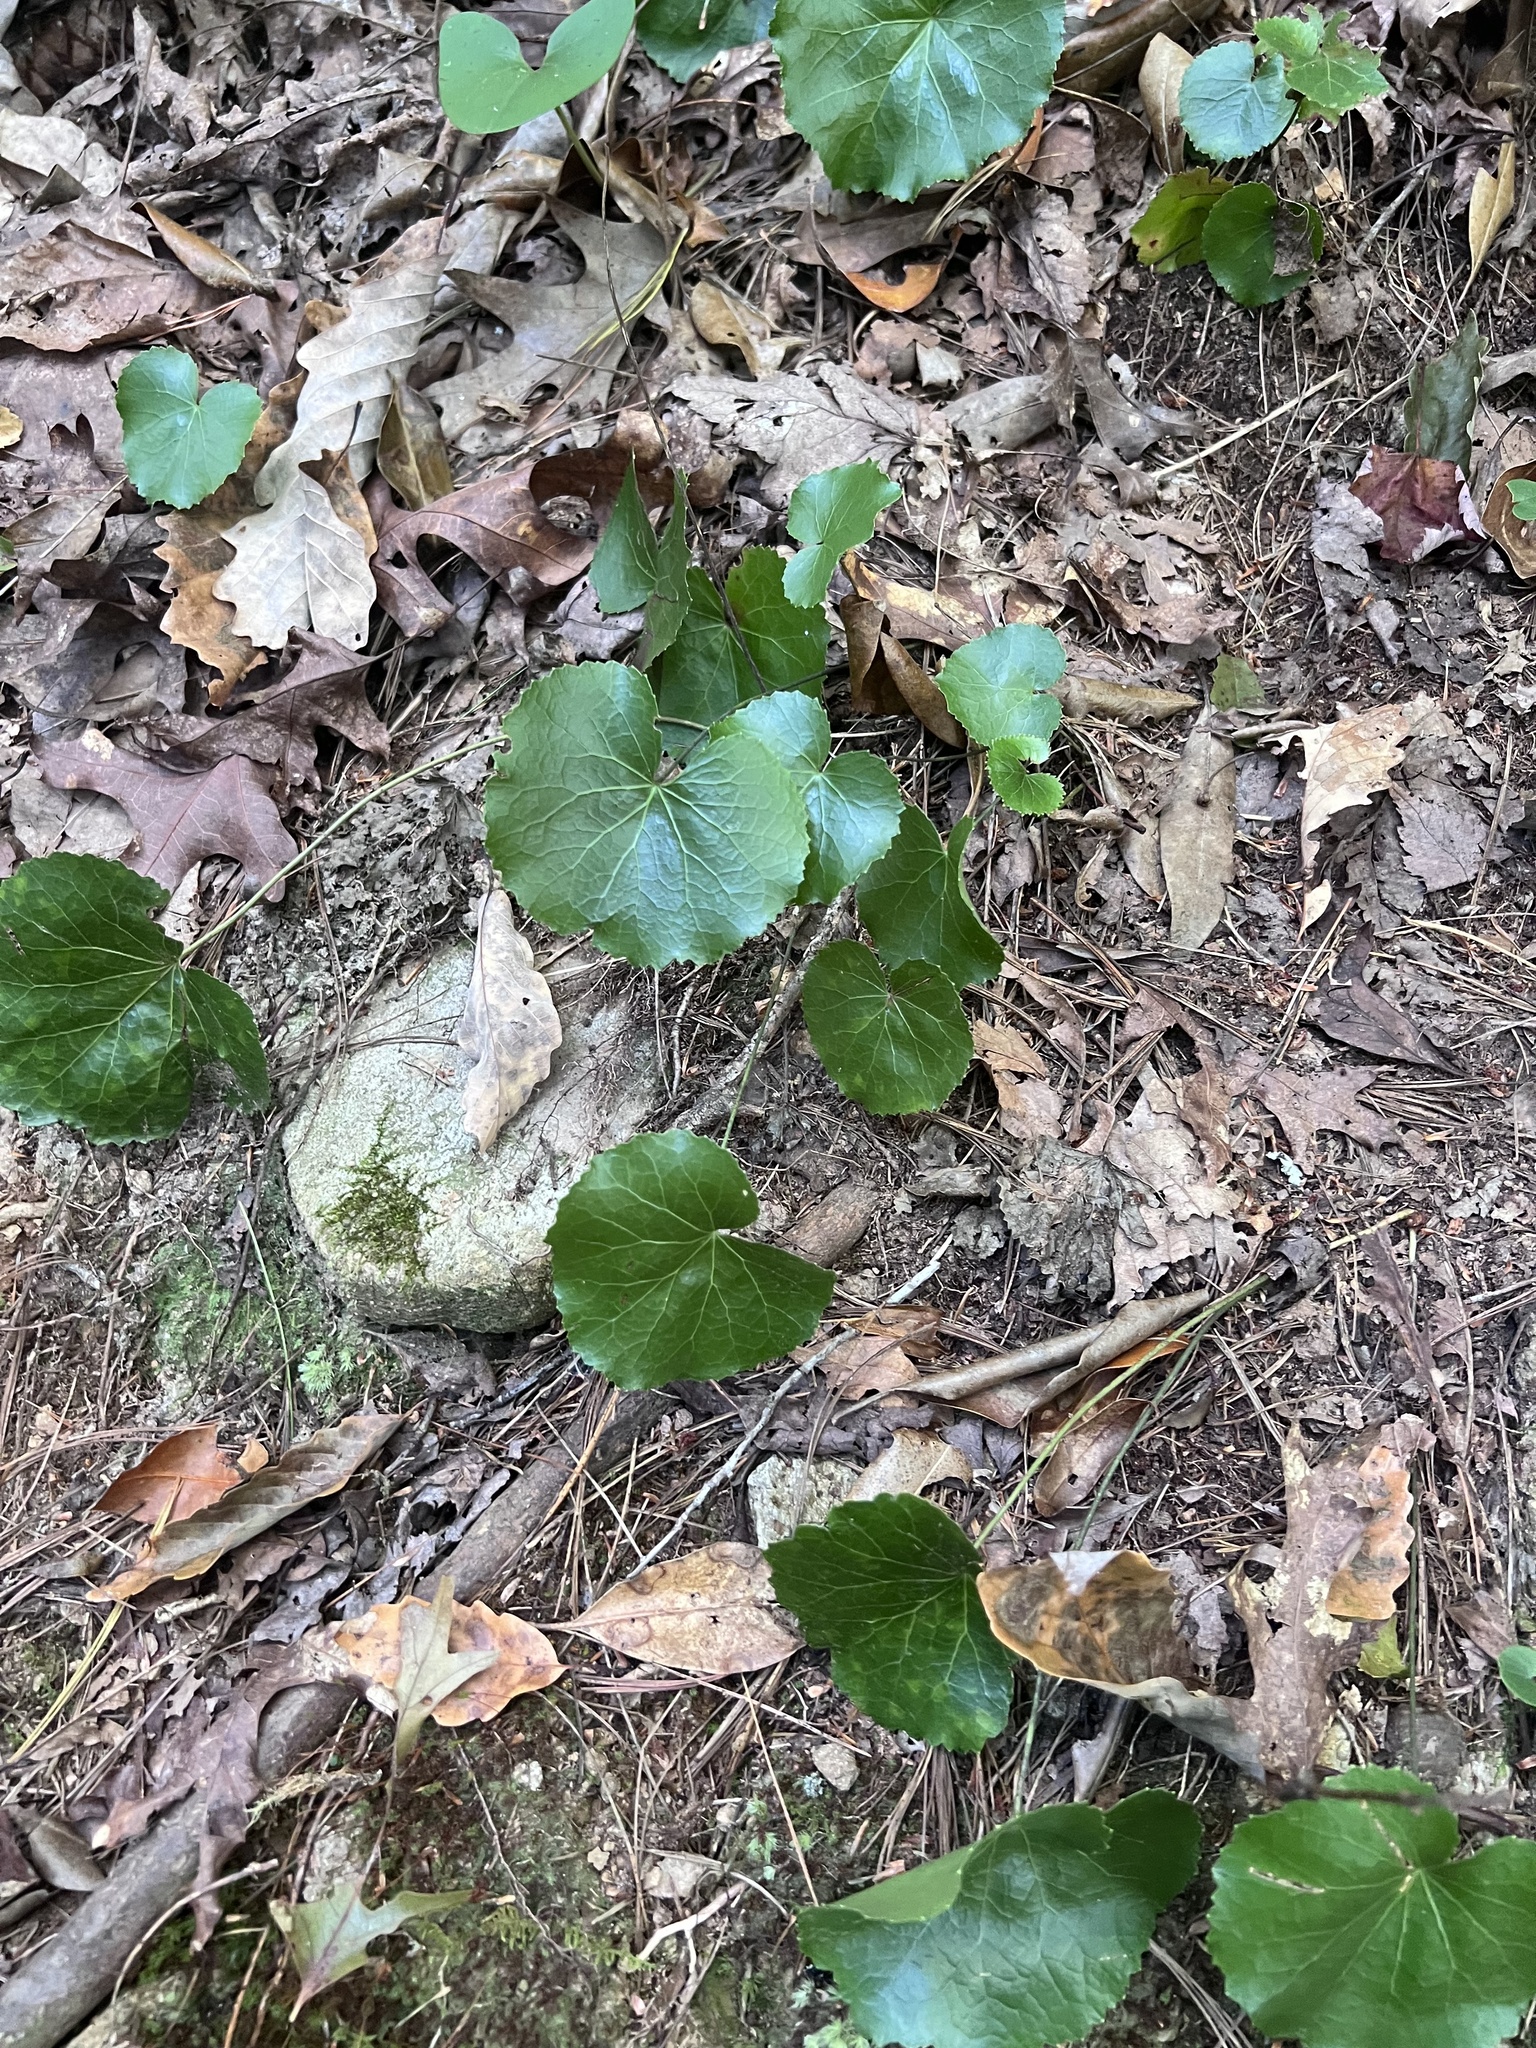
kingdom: Plantae
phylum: Tracheophyta
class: Magnoliopsida
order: Ericales
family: Diapensiaceae
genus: Galax
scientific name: Galax urceolata
